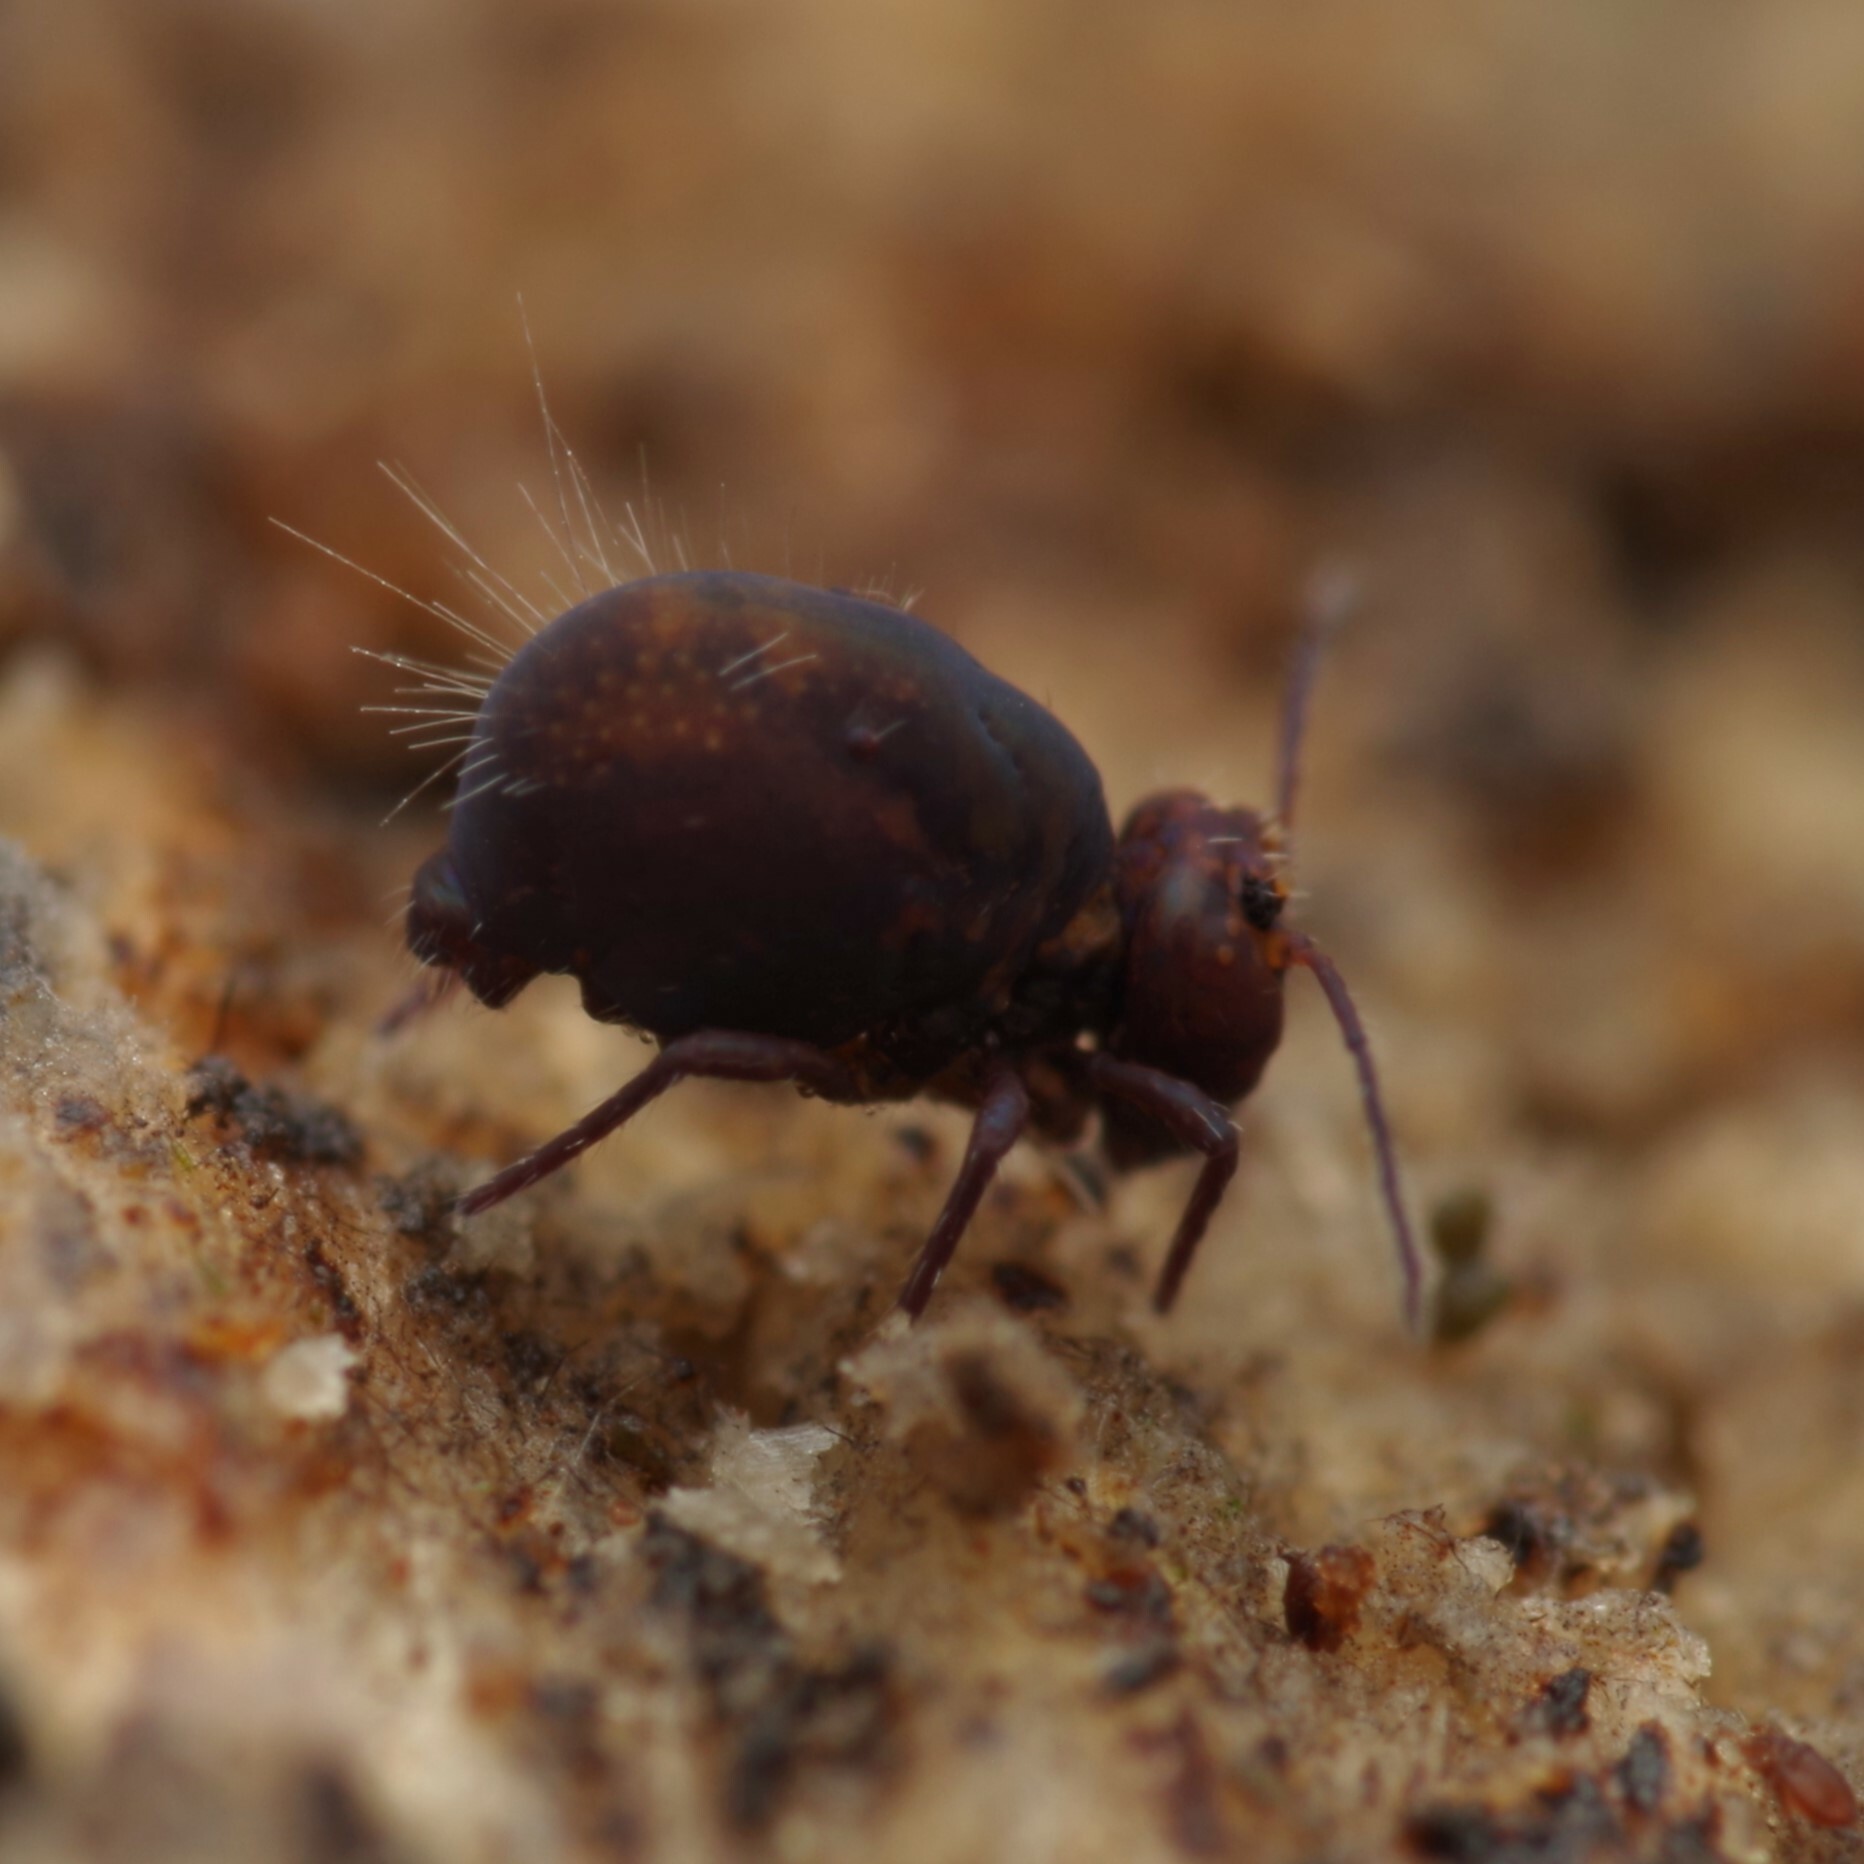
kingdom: Animalia
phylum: Arthropoda
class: Collembola
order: Symphypleona
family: Dicyrtomidae
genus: Dicyrtoma
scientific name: Dicyrtoma fusca
